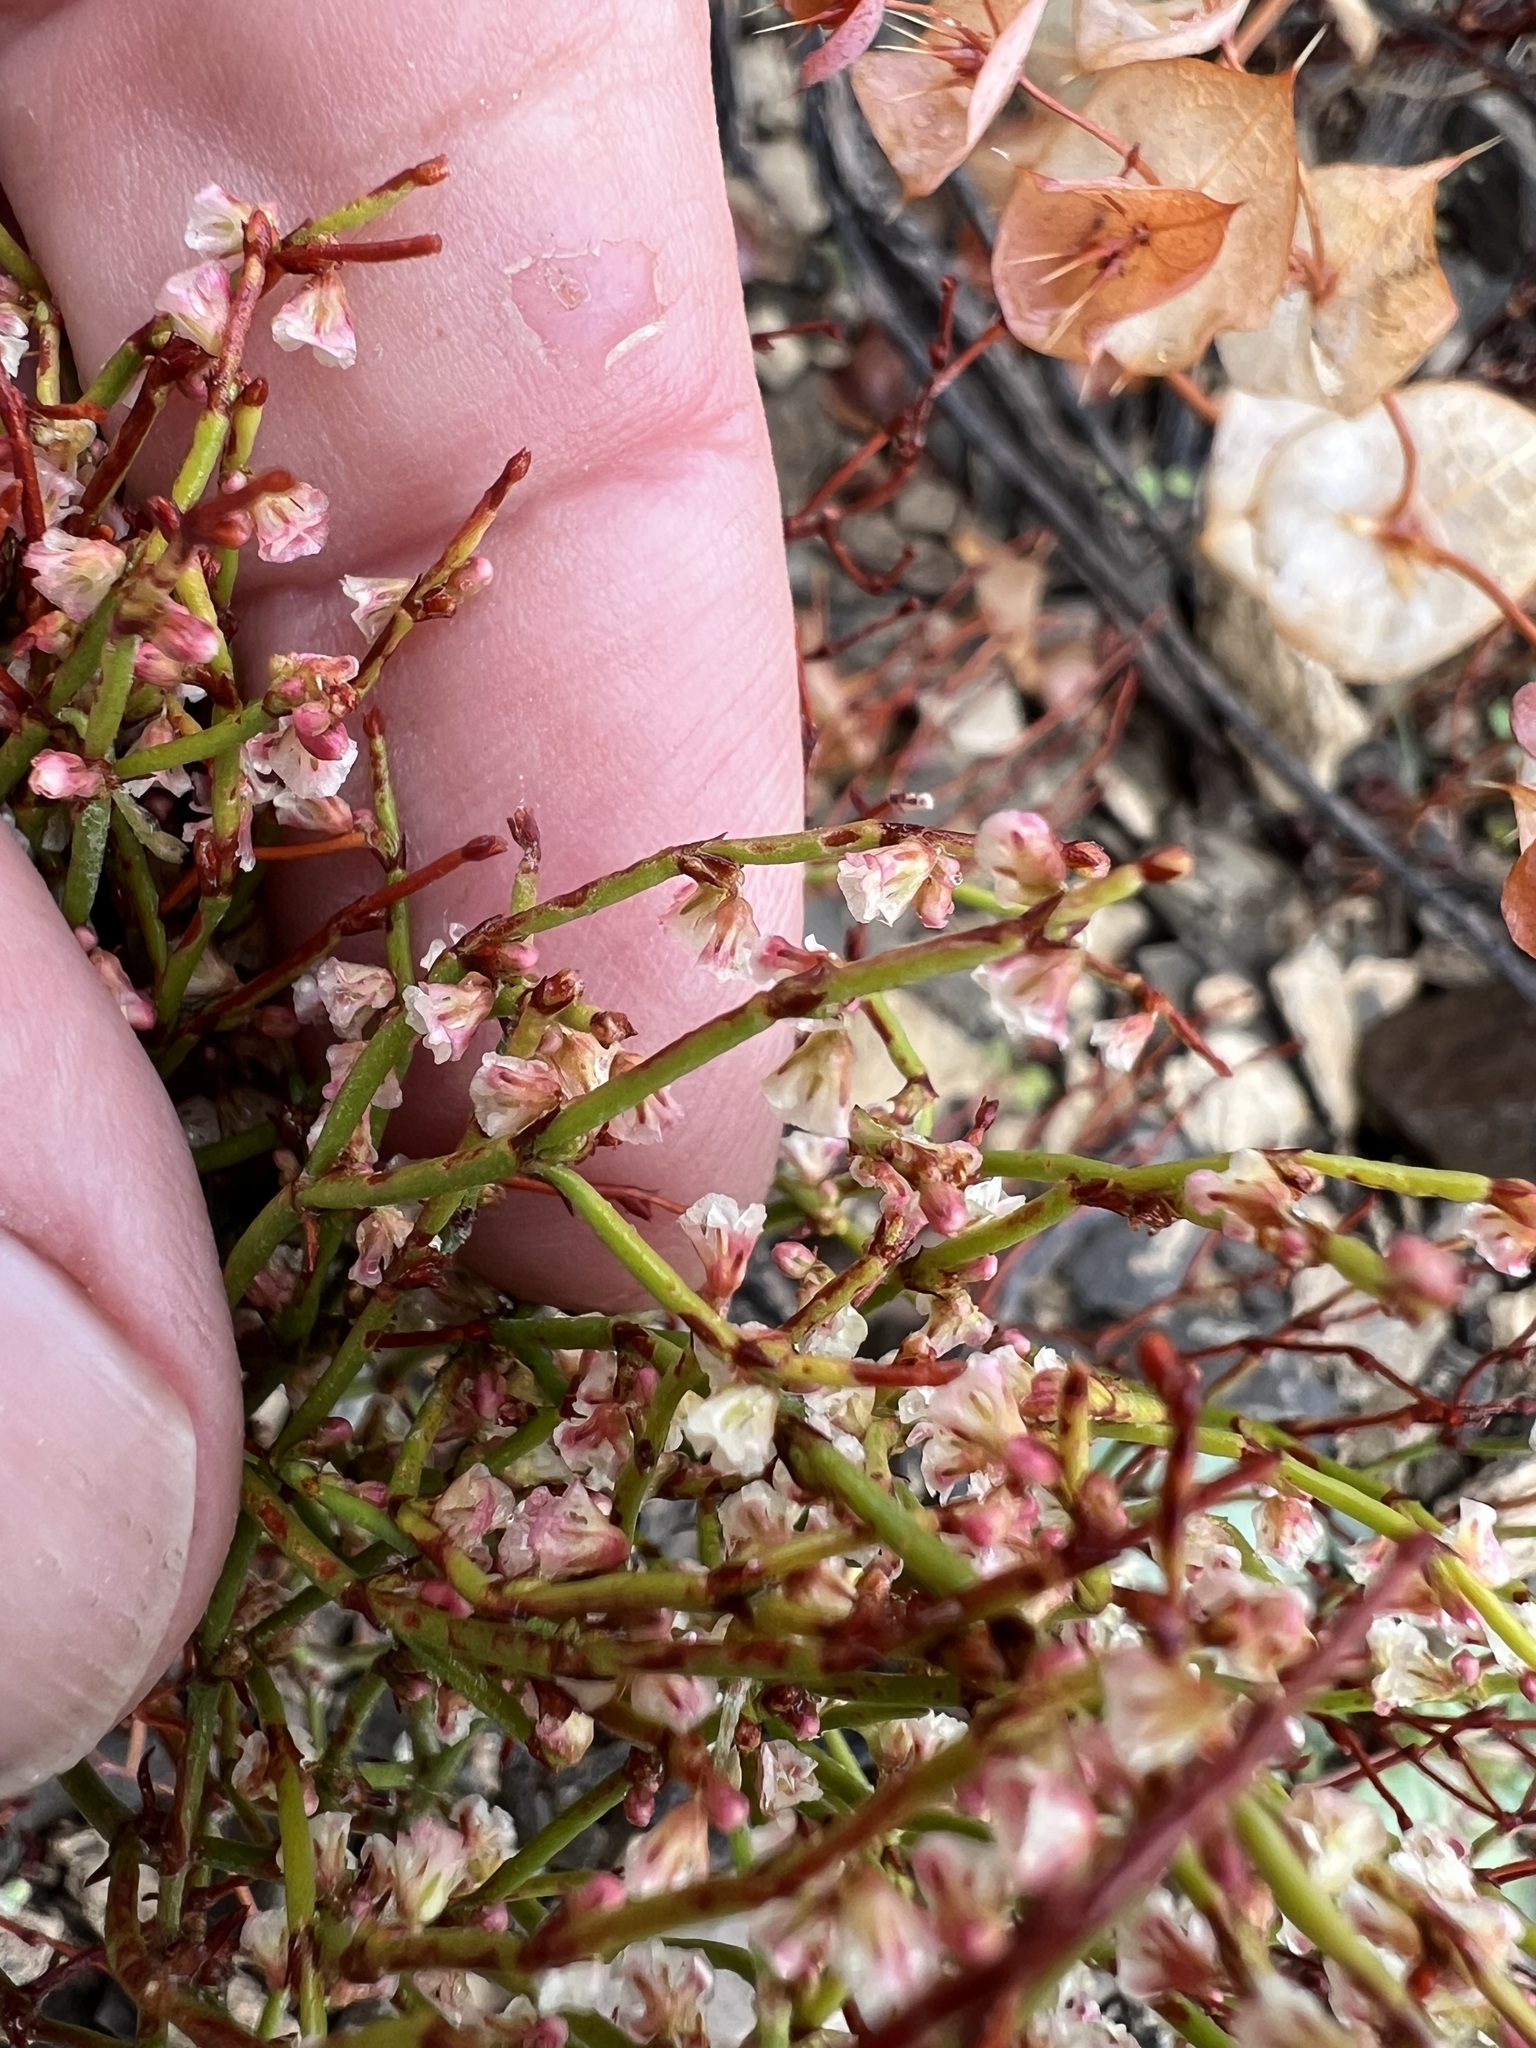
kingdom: Plantae
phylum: Tracheophyta
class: Magnoliopsida
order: Caryophyllales
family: Polygonaceae
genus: Eriogonum
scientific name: Eriogonum nidularium
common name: Bird's-nest wild buckwheat
